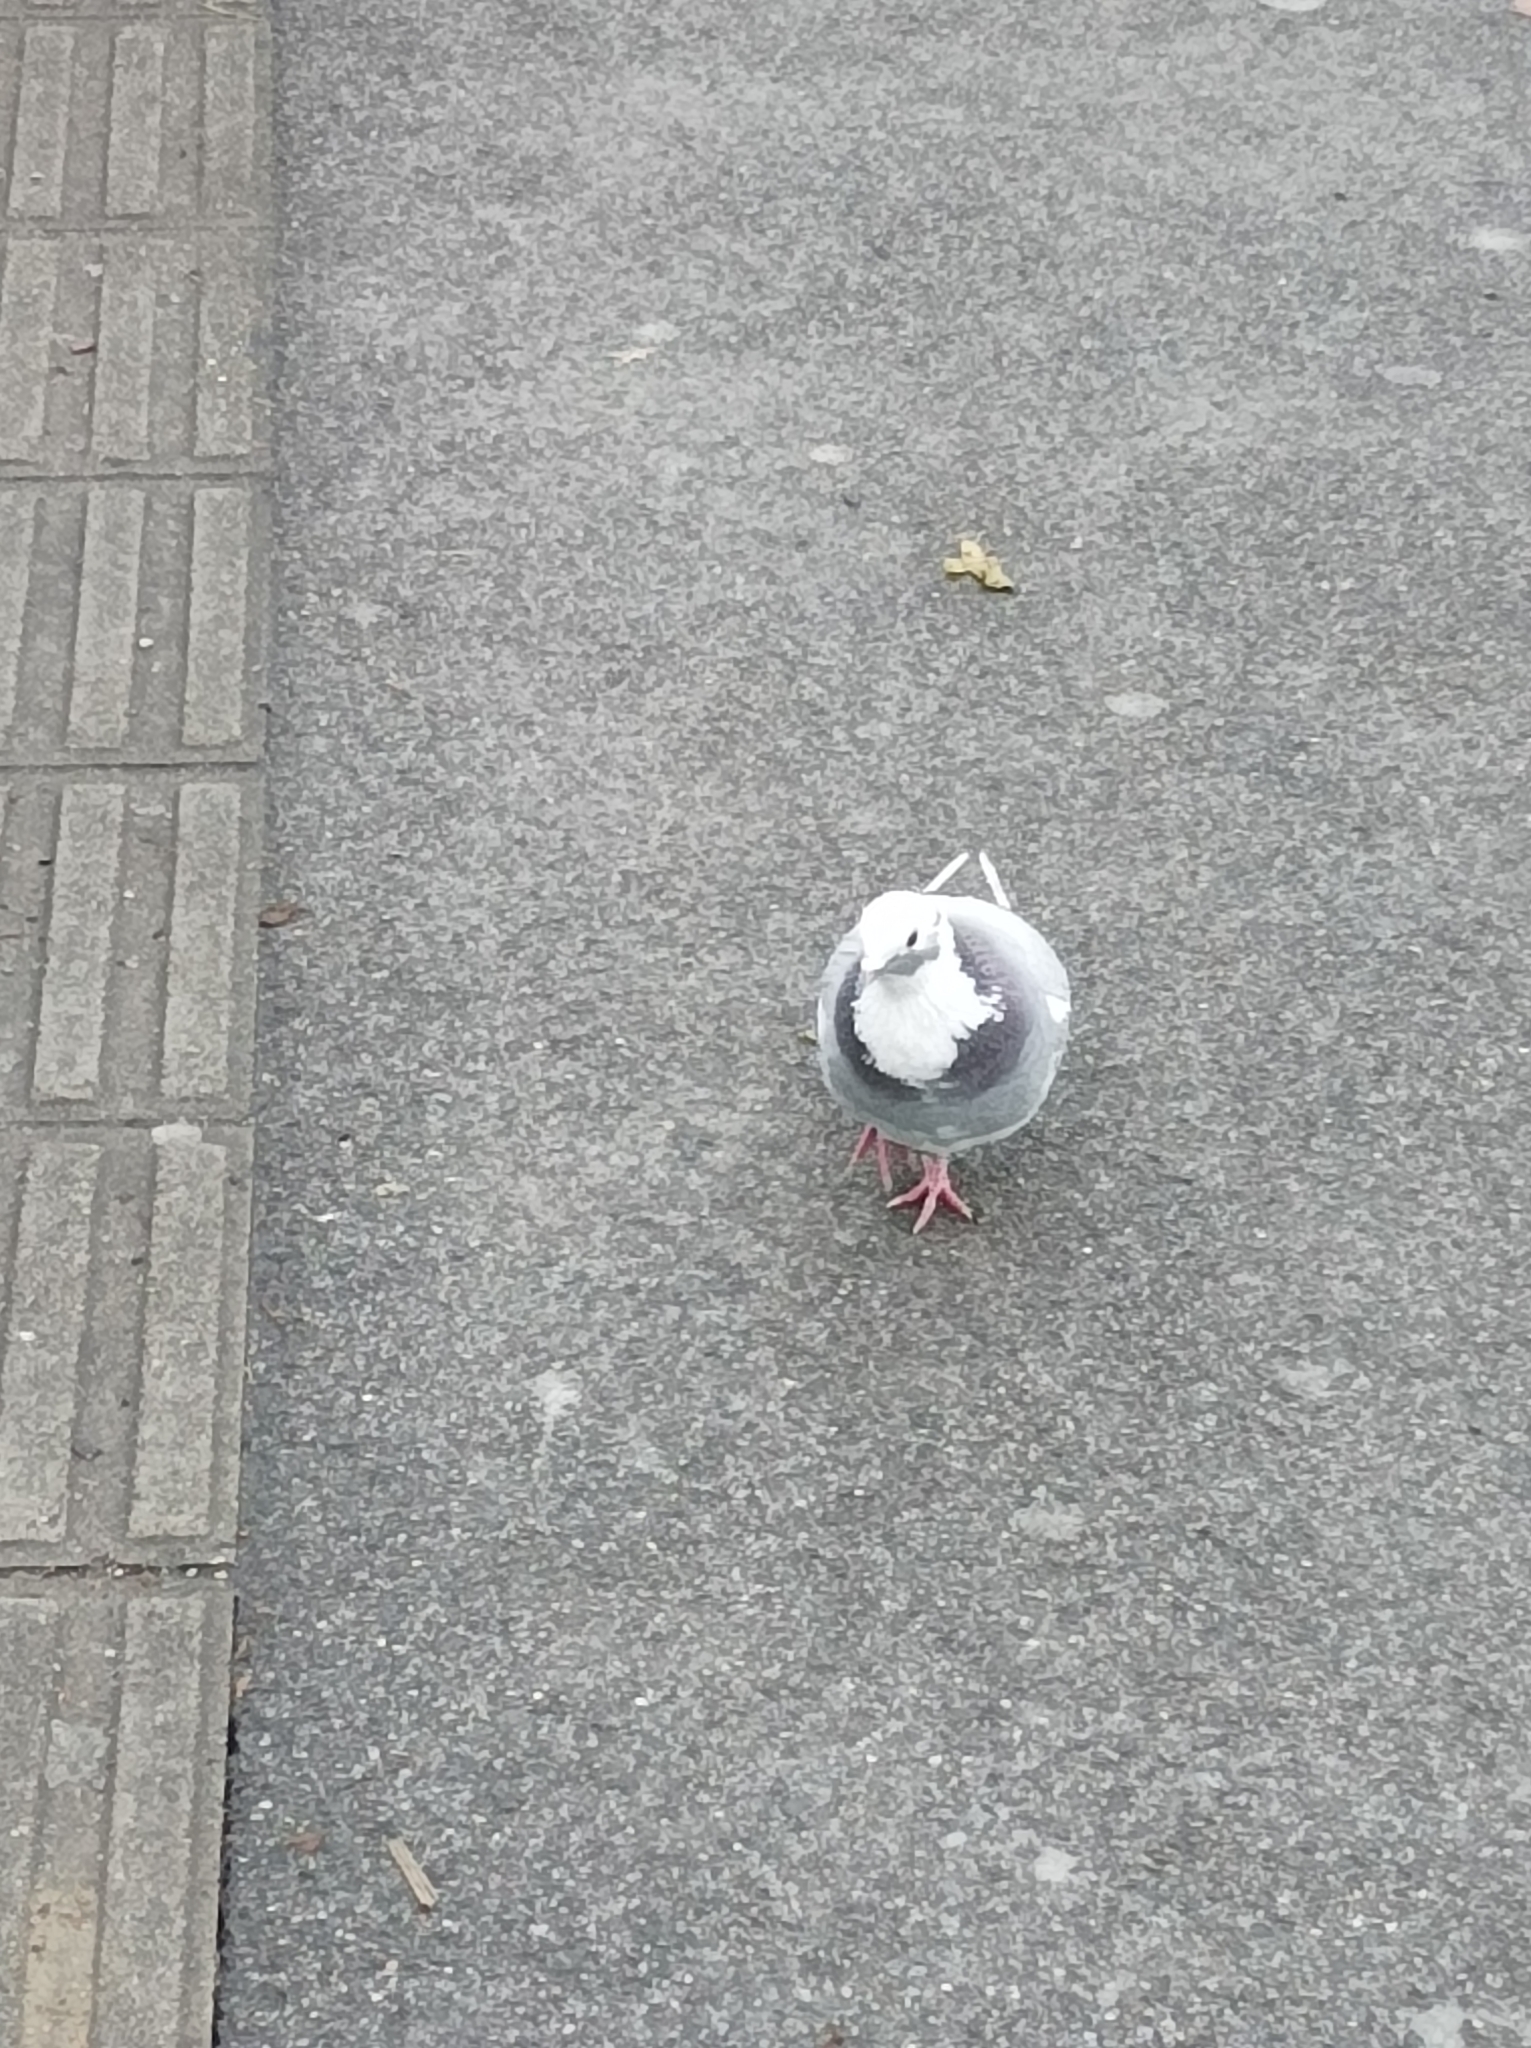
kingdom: Animalia
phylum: Chordata
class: Aves
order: Columbiformes
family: Columbidae
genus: Columba
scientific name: Columba livia
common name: Rock pigeon
